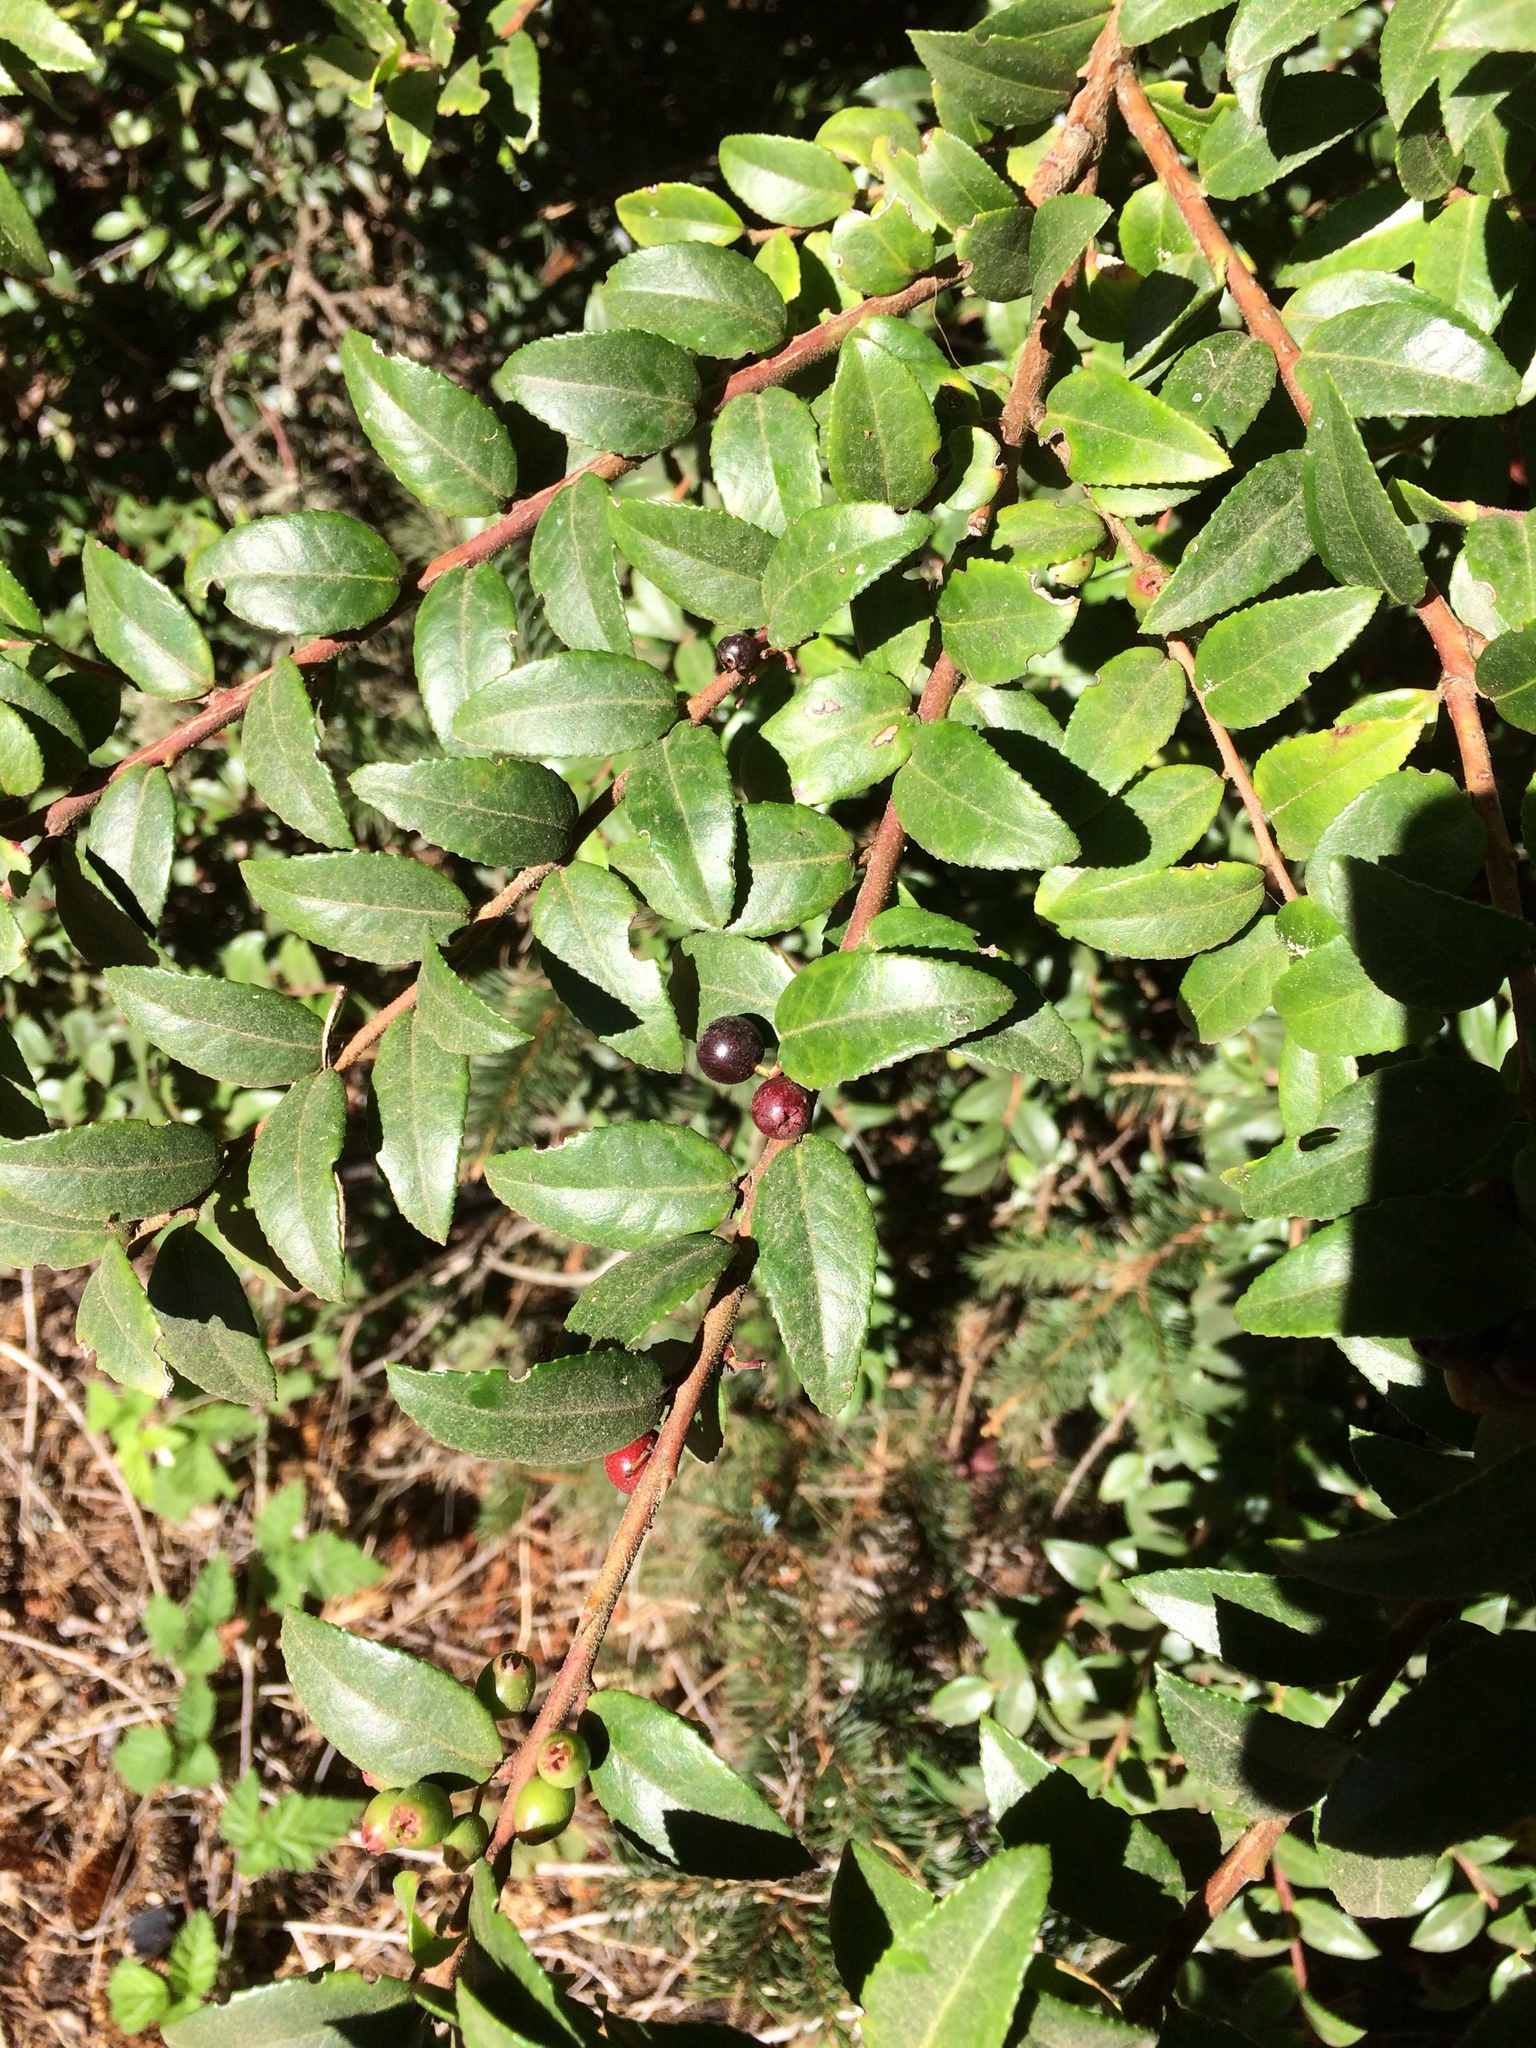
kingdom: Plantae
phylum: Tracheophyta
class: Magnoliopsida
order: Ericales
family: Ericaceae
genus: Vaccinium
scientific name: Vaccinium ovatum
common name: California-huckleberry
